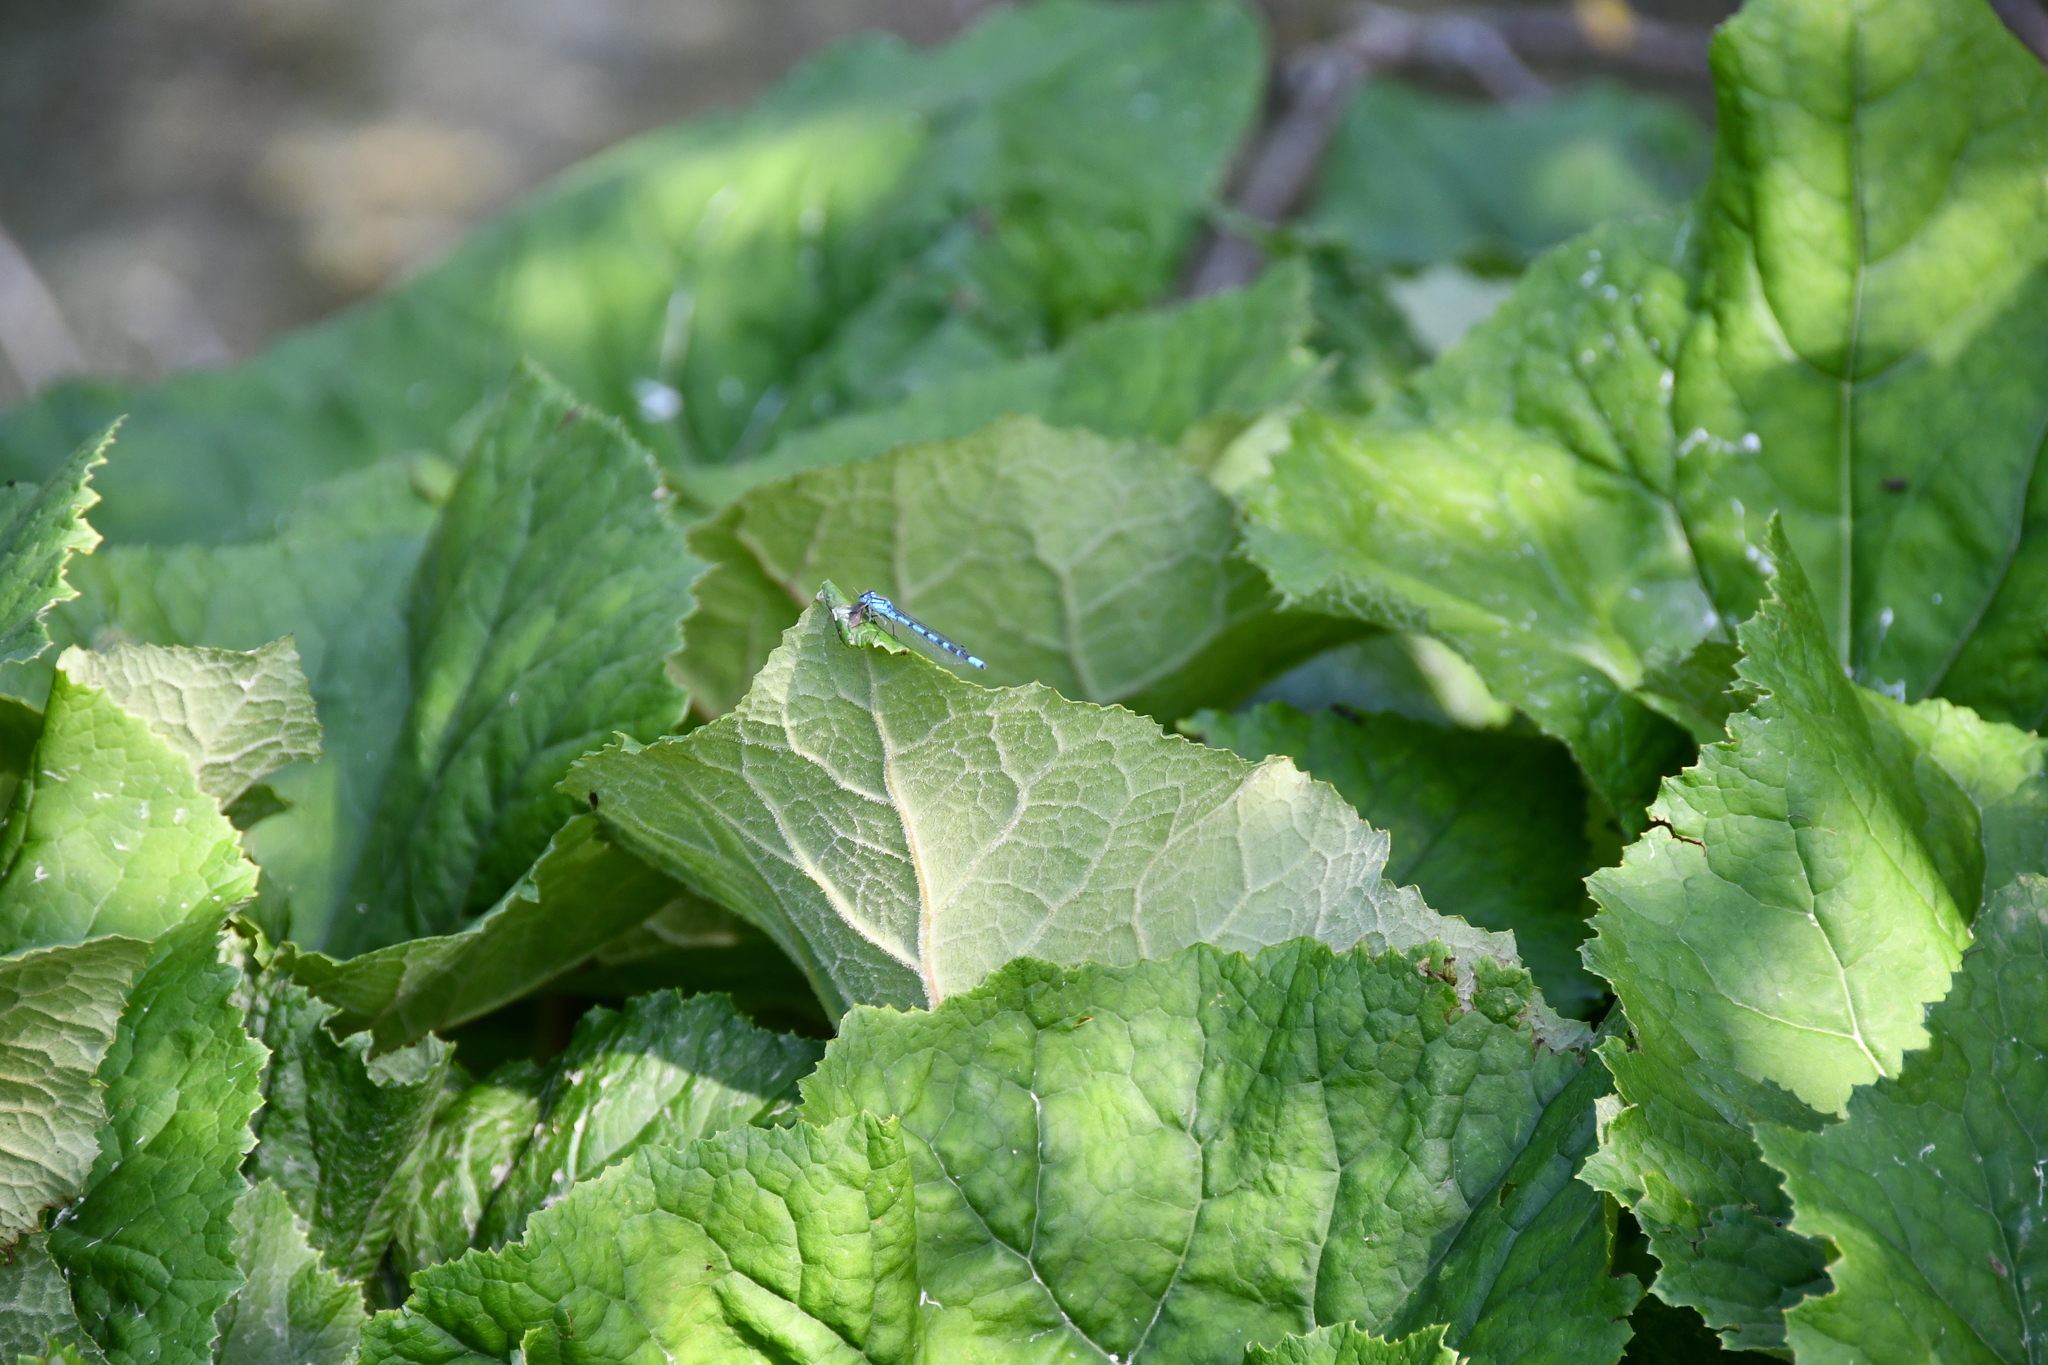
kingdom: Animalia
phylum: Arthropoda
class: Insecta
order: Odonata
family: Coenagrionidae
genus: Enallagma
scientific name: Enallagma cyathigerum
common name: Common blue damselfly
